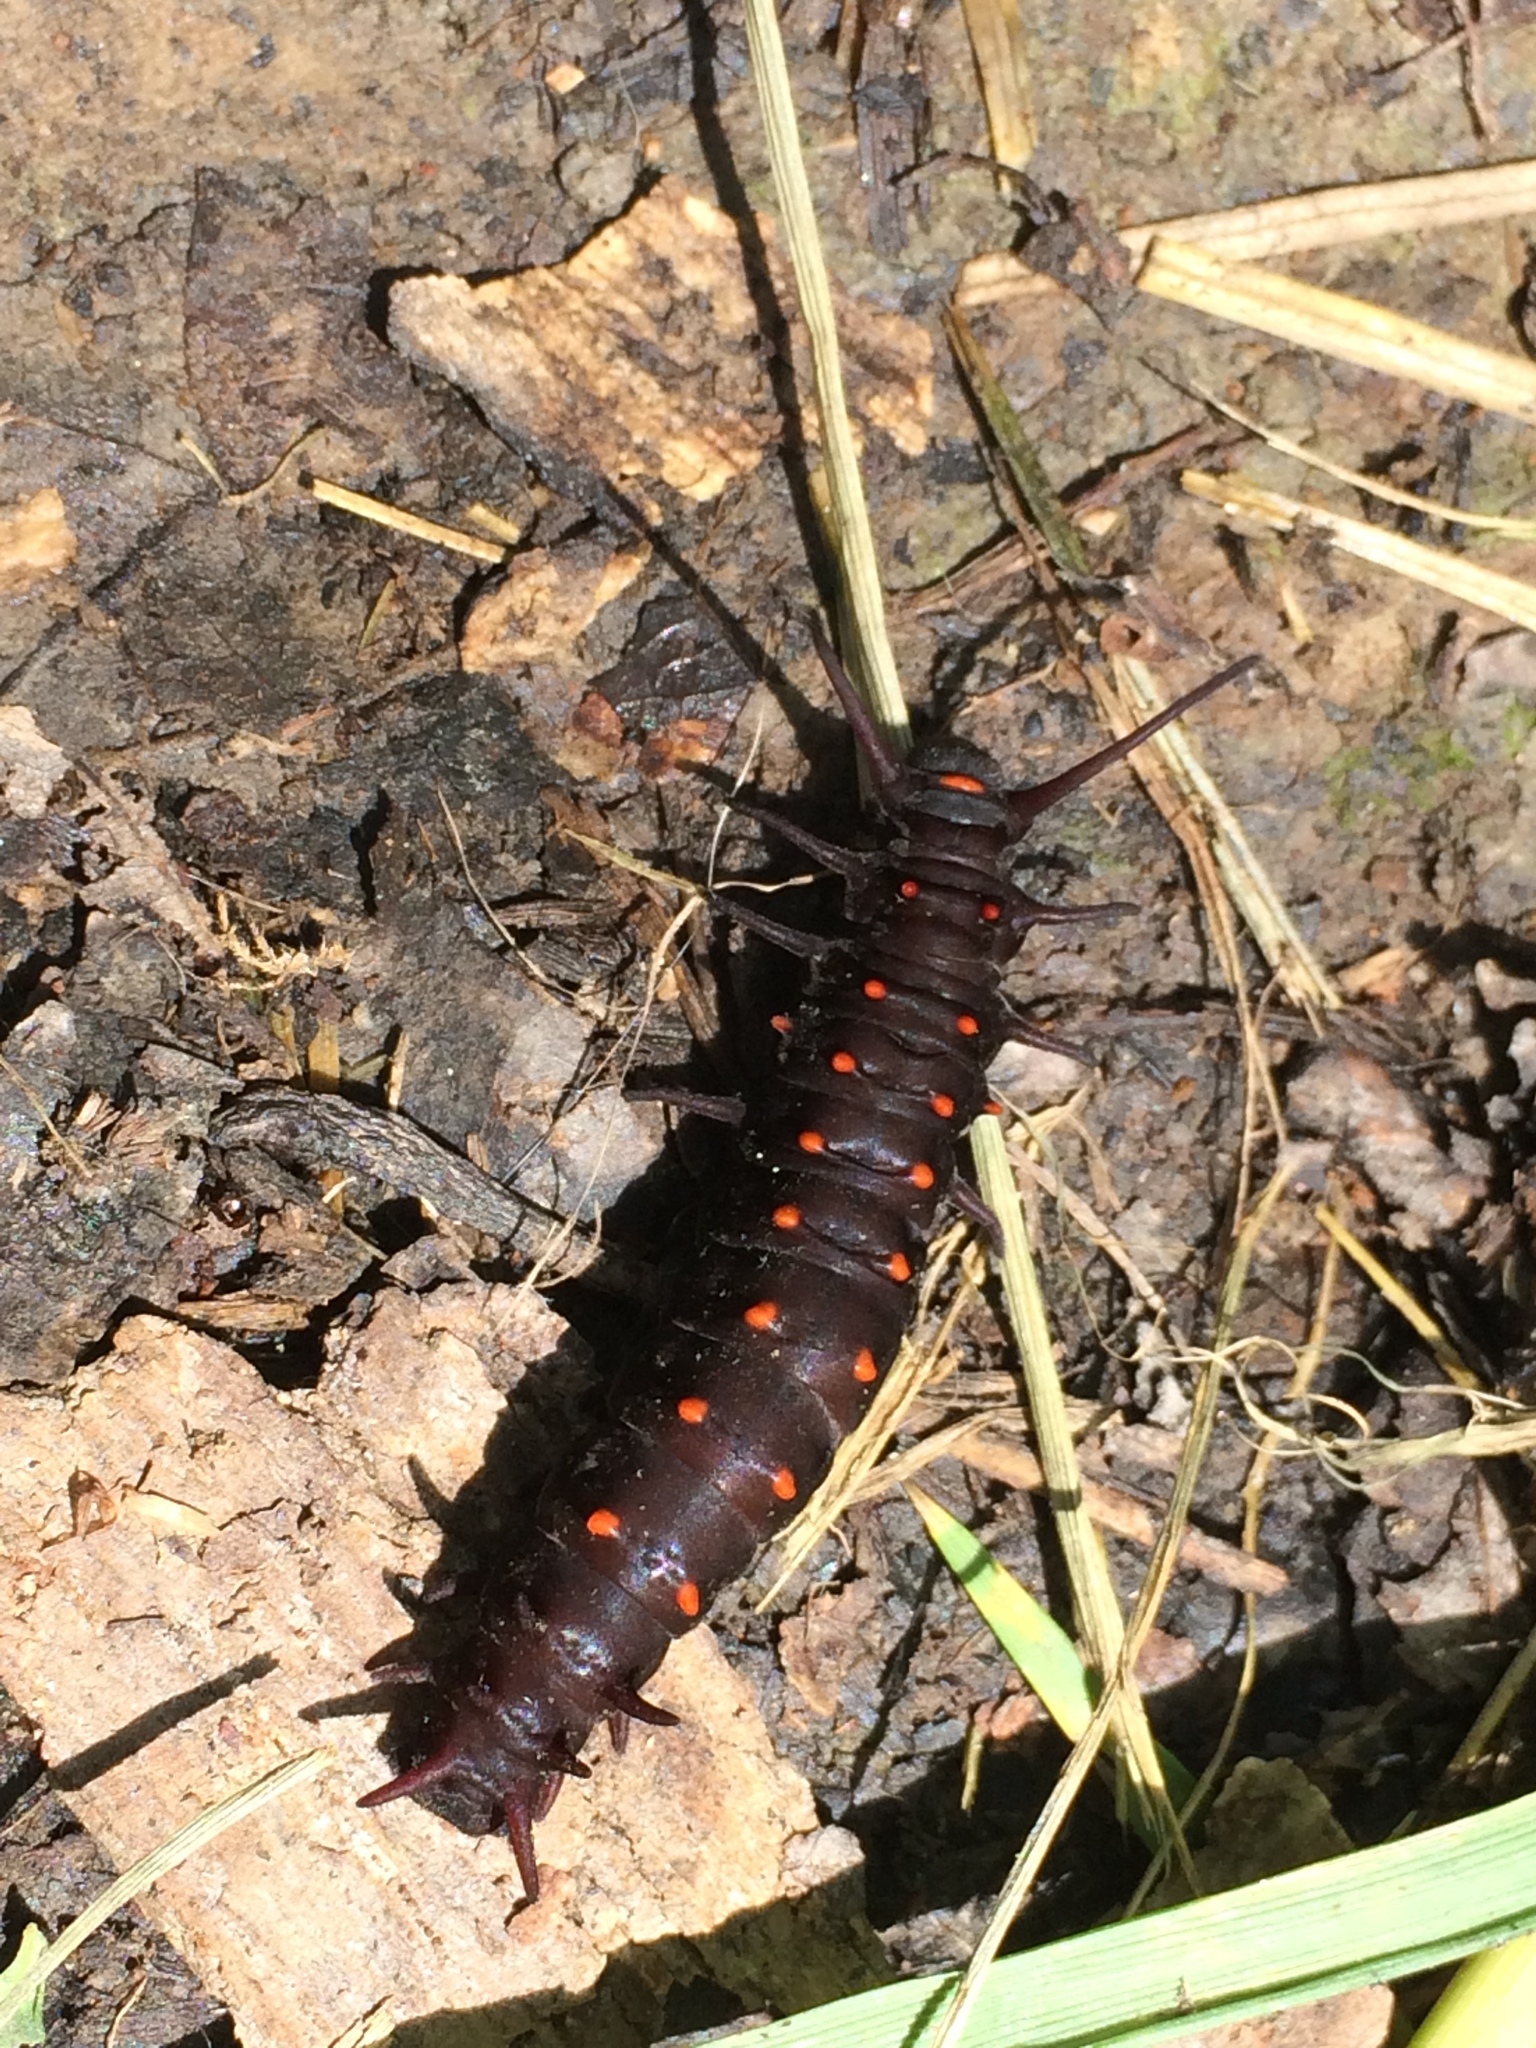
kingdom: Animalia
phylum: Arthropoda
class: Insecta
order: Lepidoptera
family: Papilionidae
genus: Battus
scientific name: Battus philenor
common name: Pipevine swallowtail
